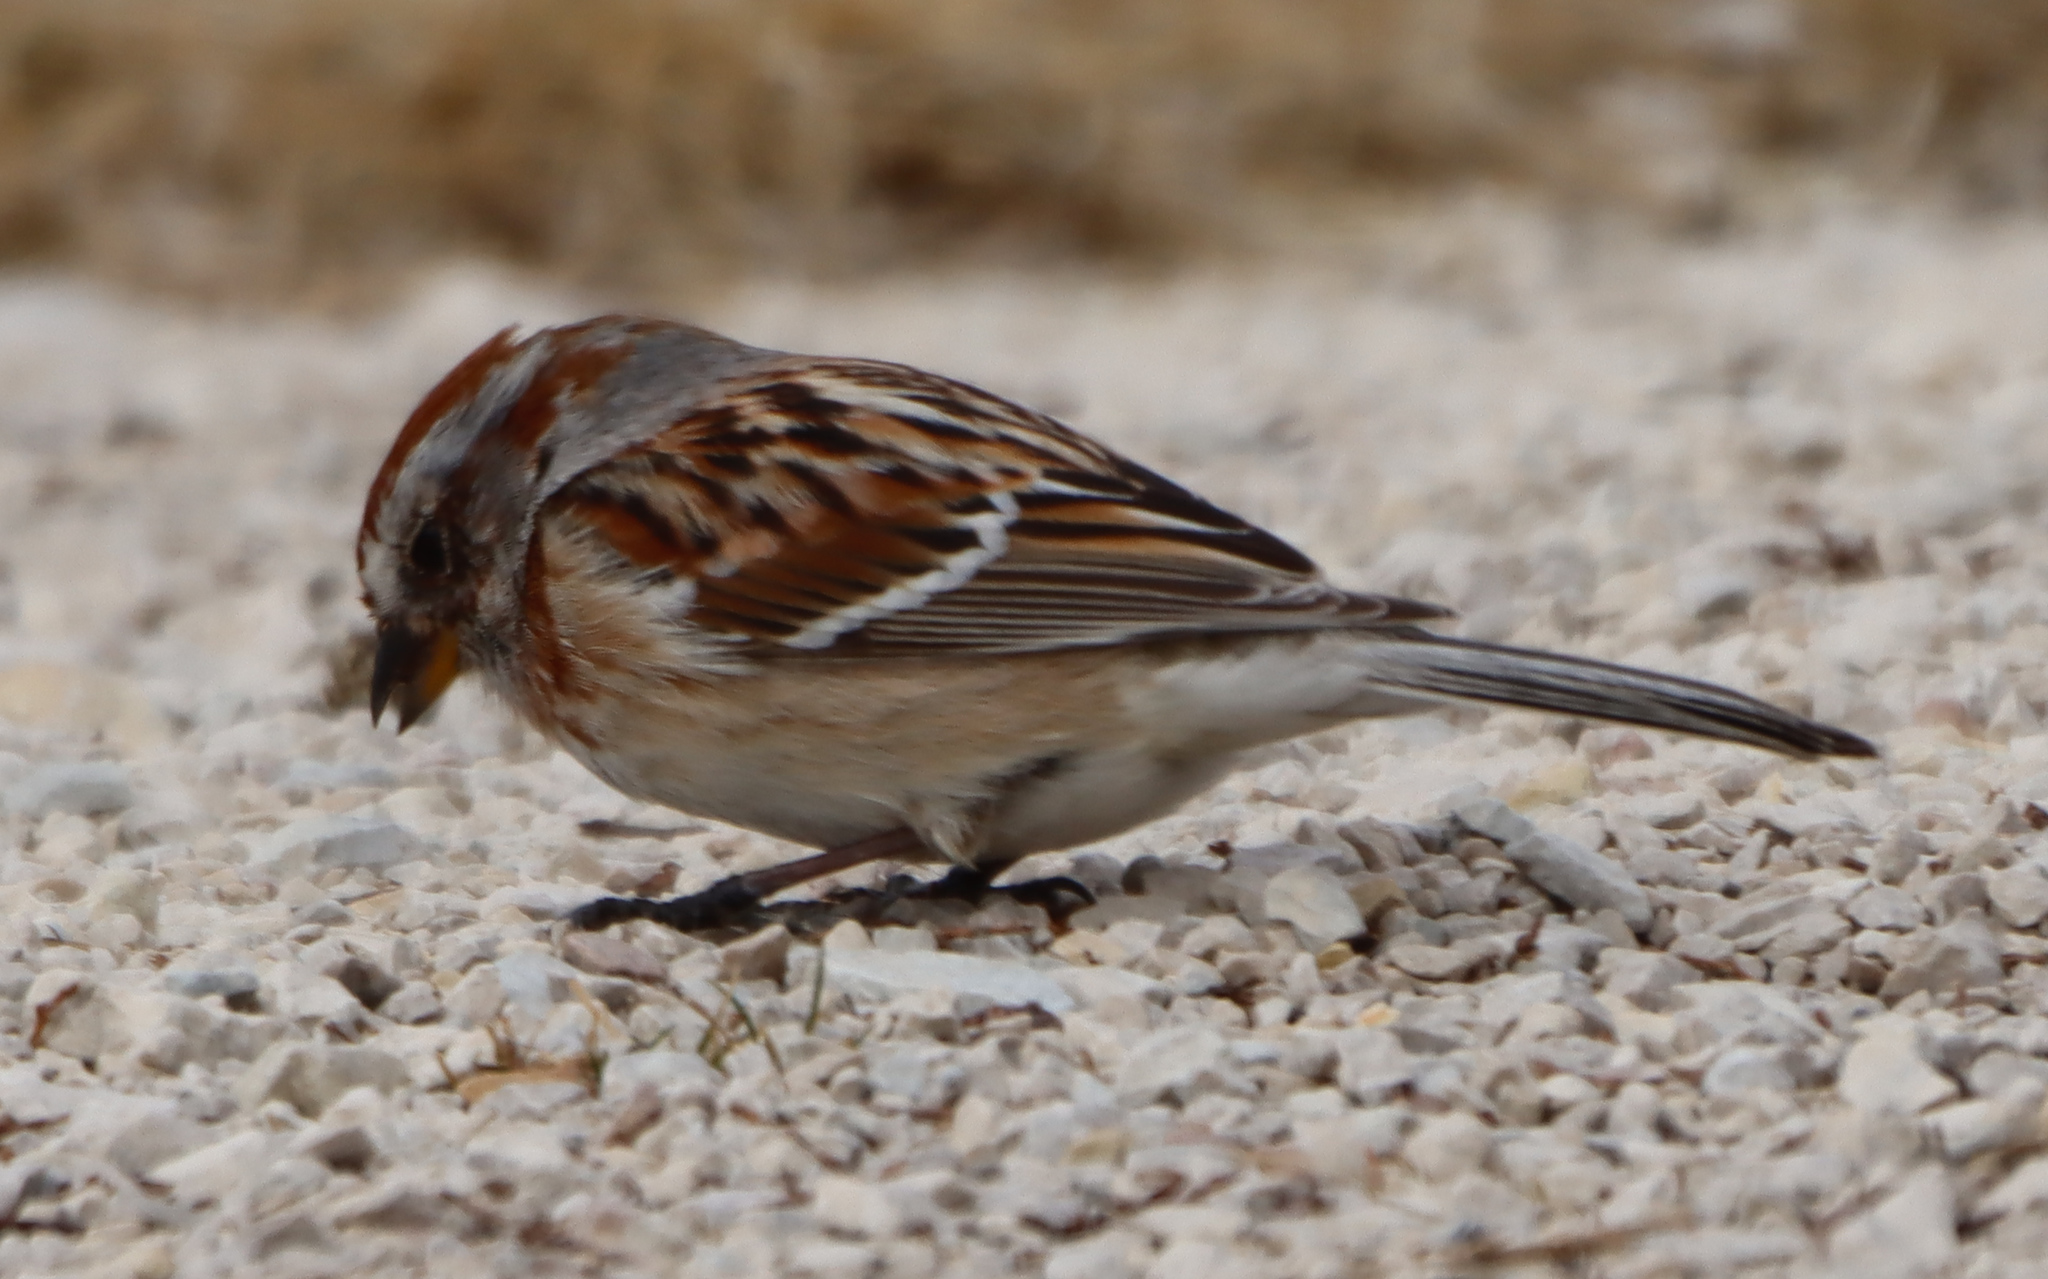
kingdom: Animalia
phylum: Chordata
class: Aves
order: Passeriformes
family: Passerellidae
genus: Spizelloides
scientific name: Spizelloides arborea
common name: American tree sparrow
